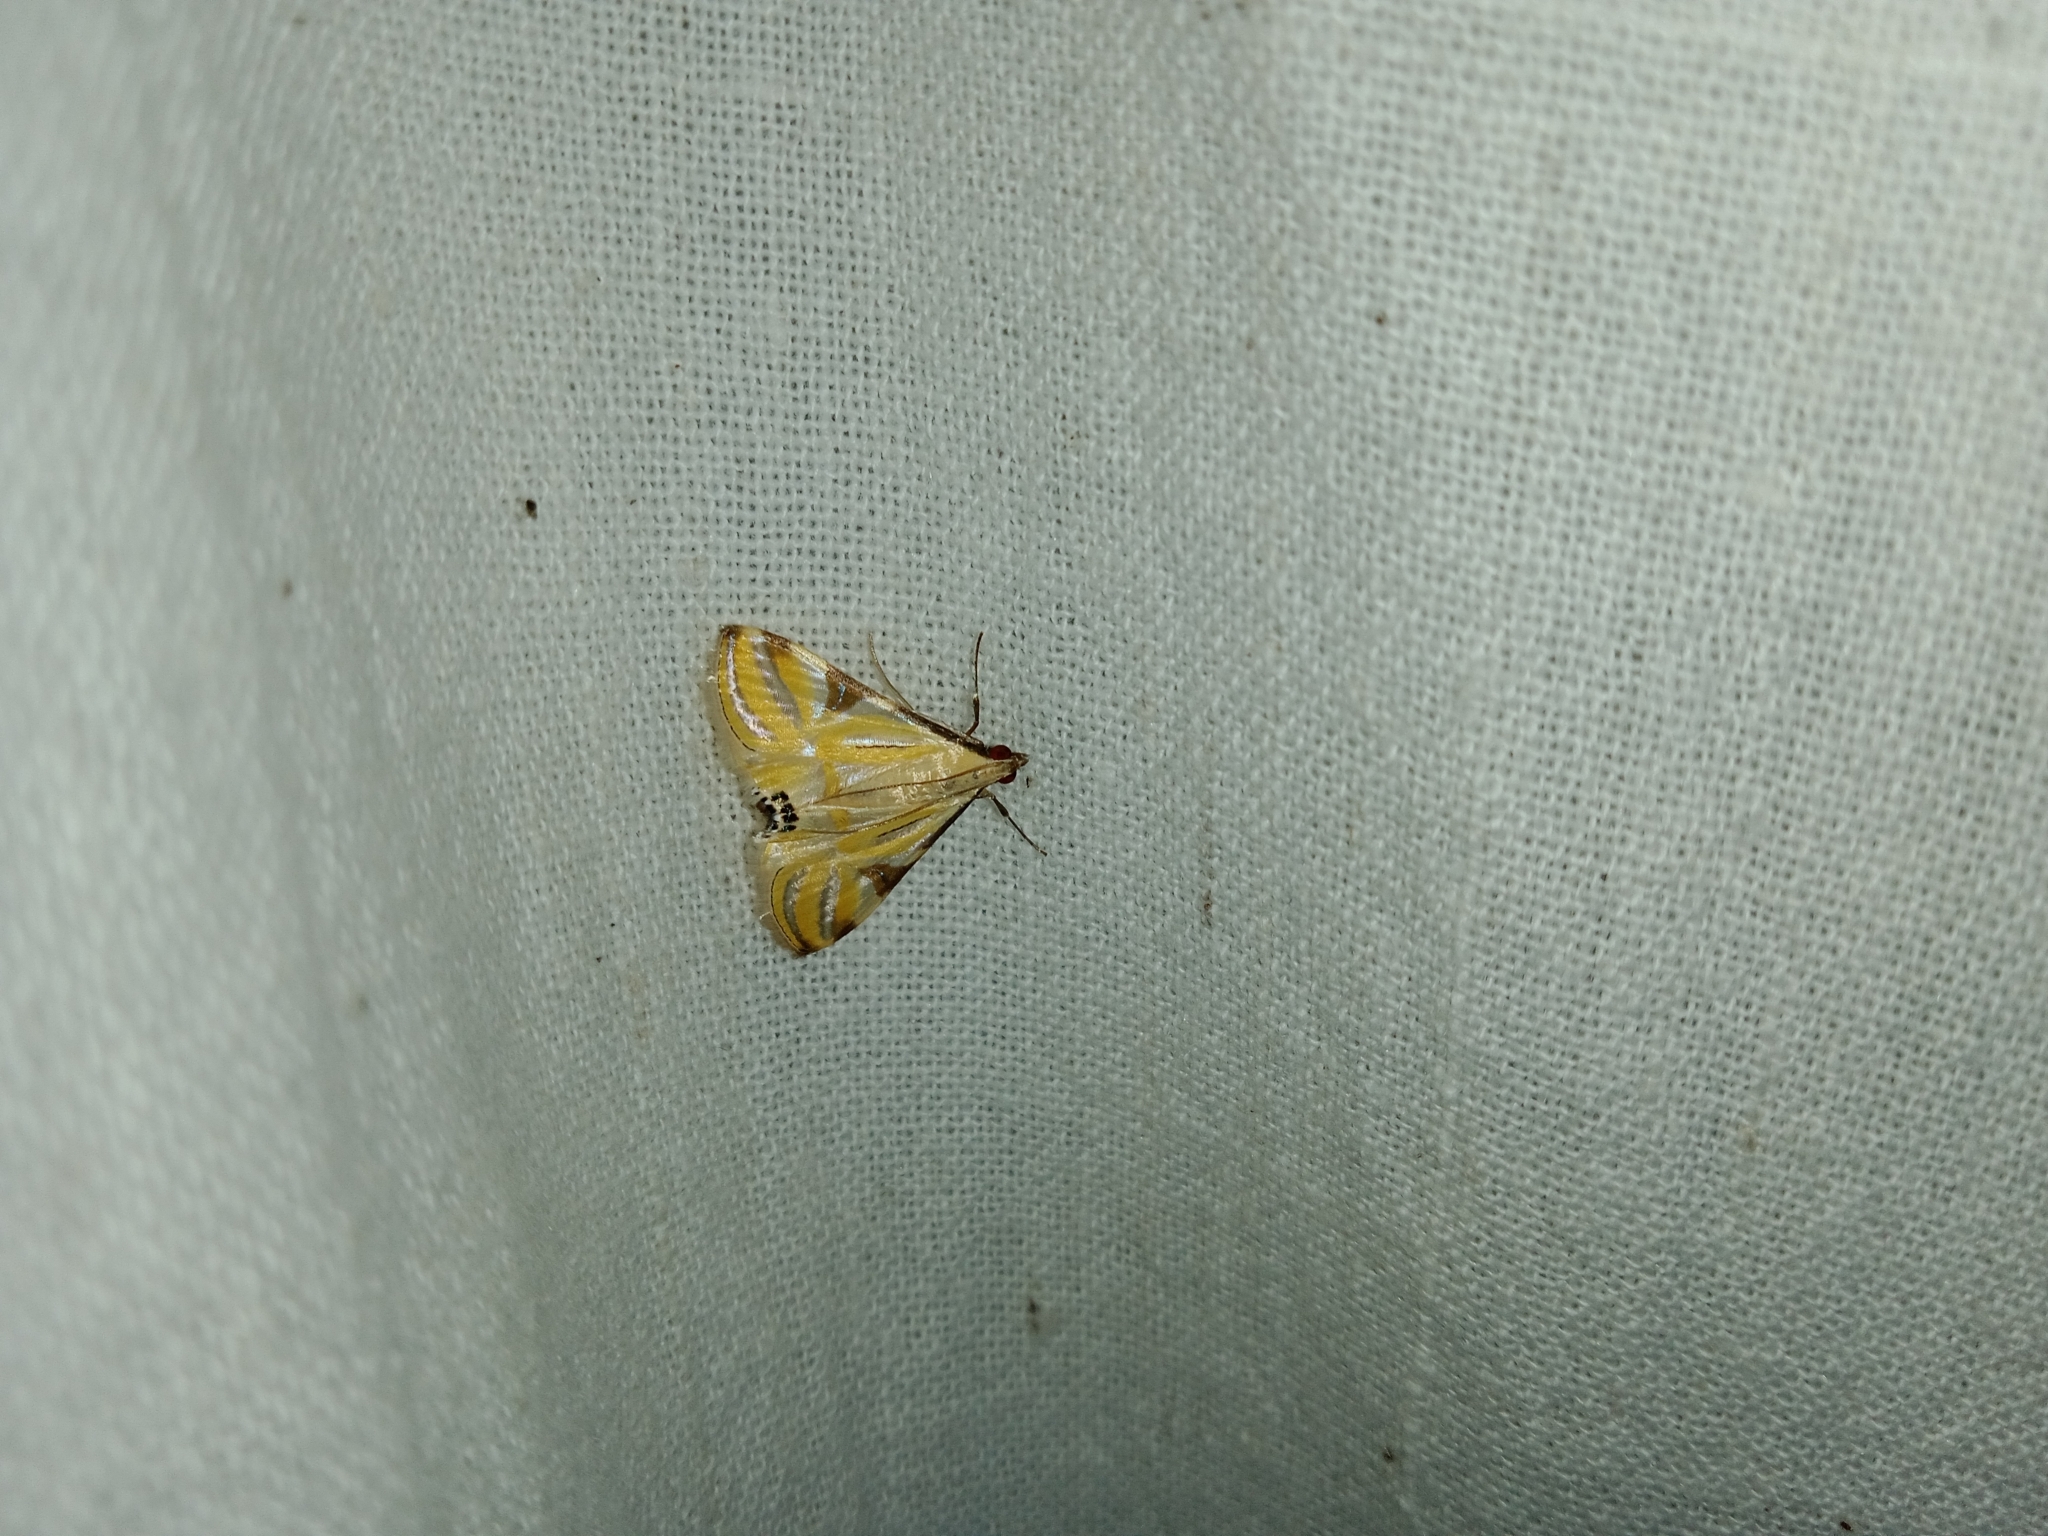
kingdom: Animalia
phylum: Arthropoda
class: Insecta
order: Lepidoptera
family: Crambidae
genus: Talanga
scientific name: Talanga sexpunctalis
